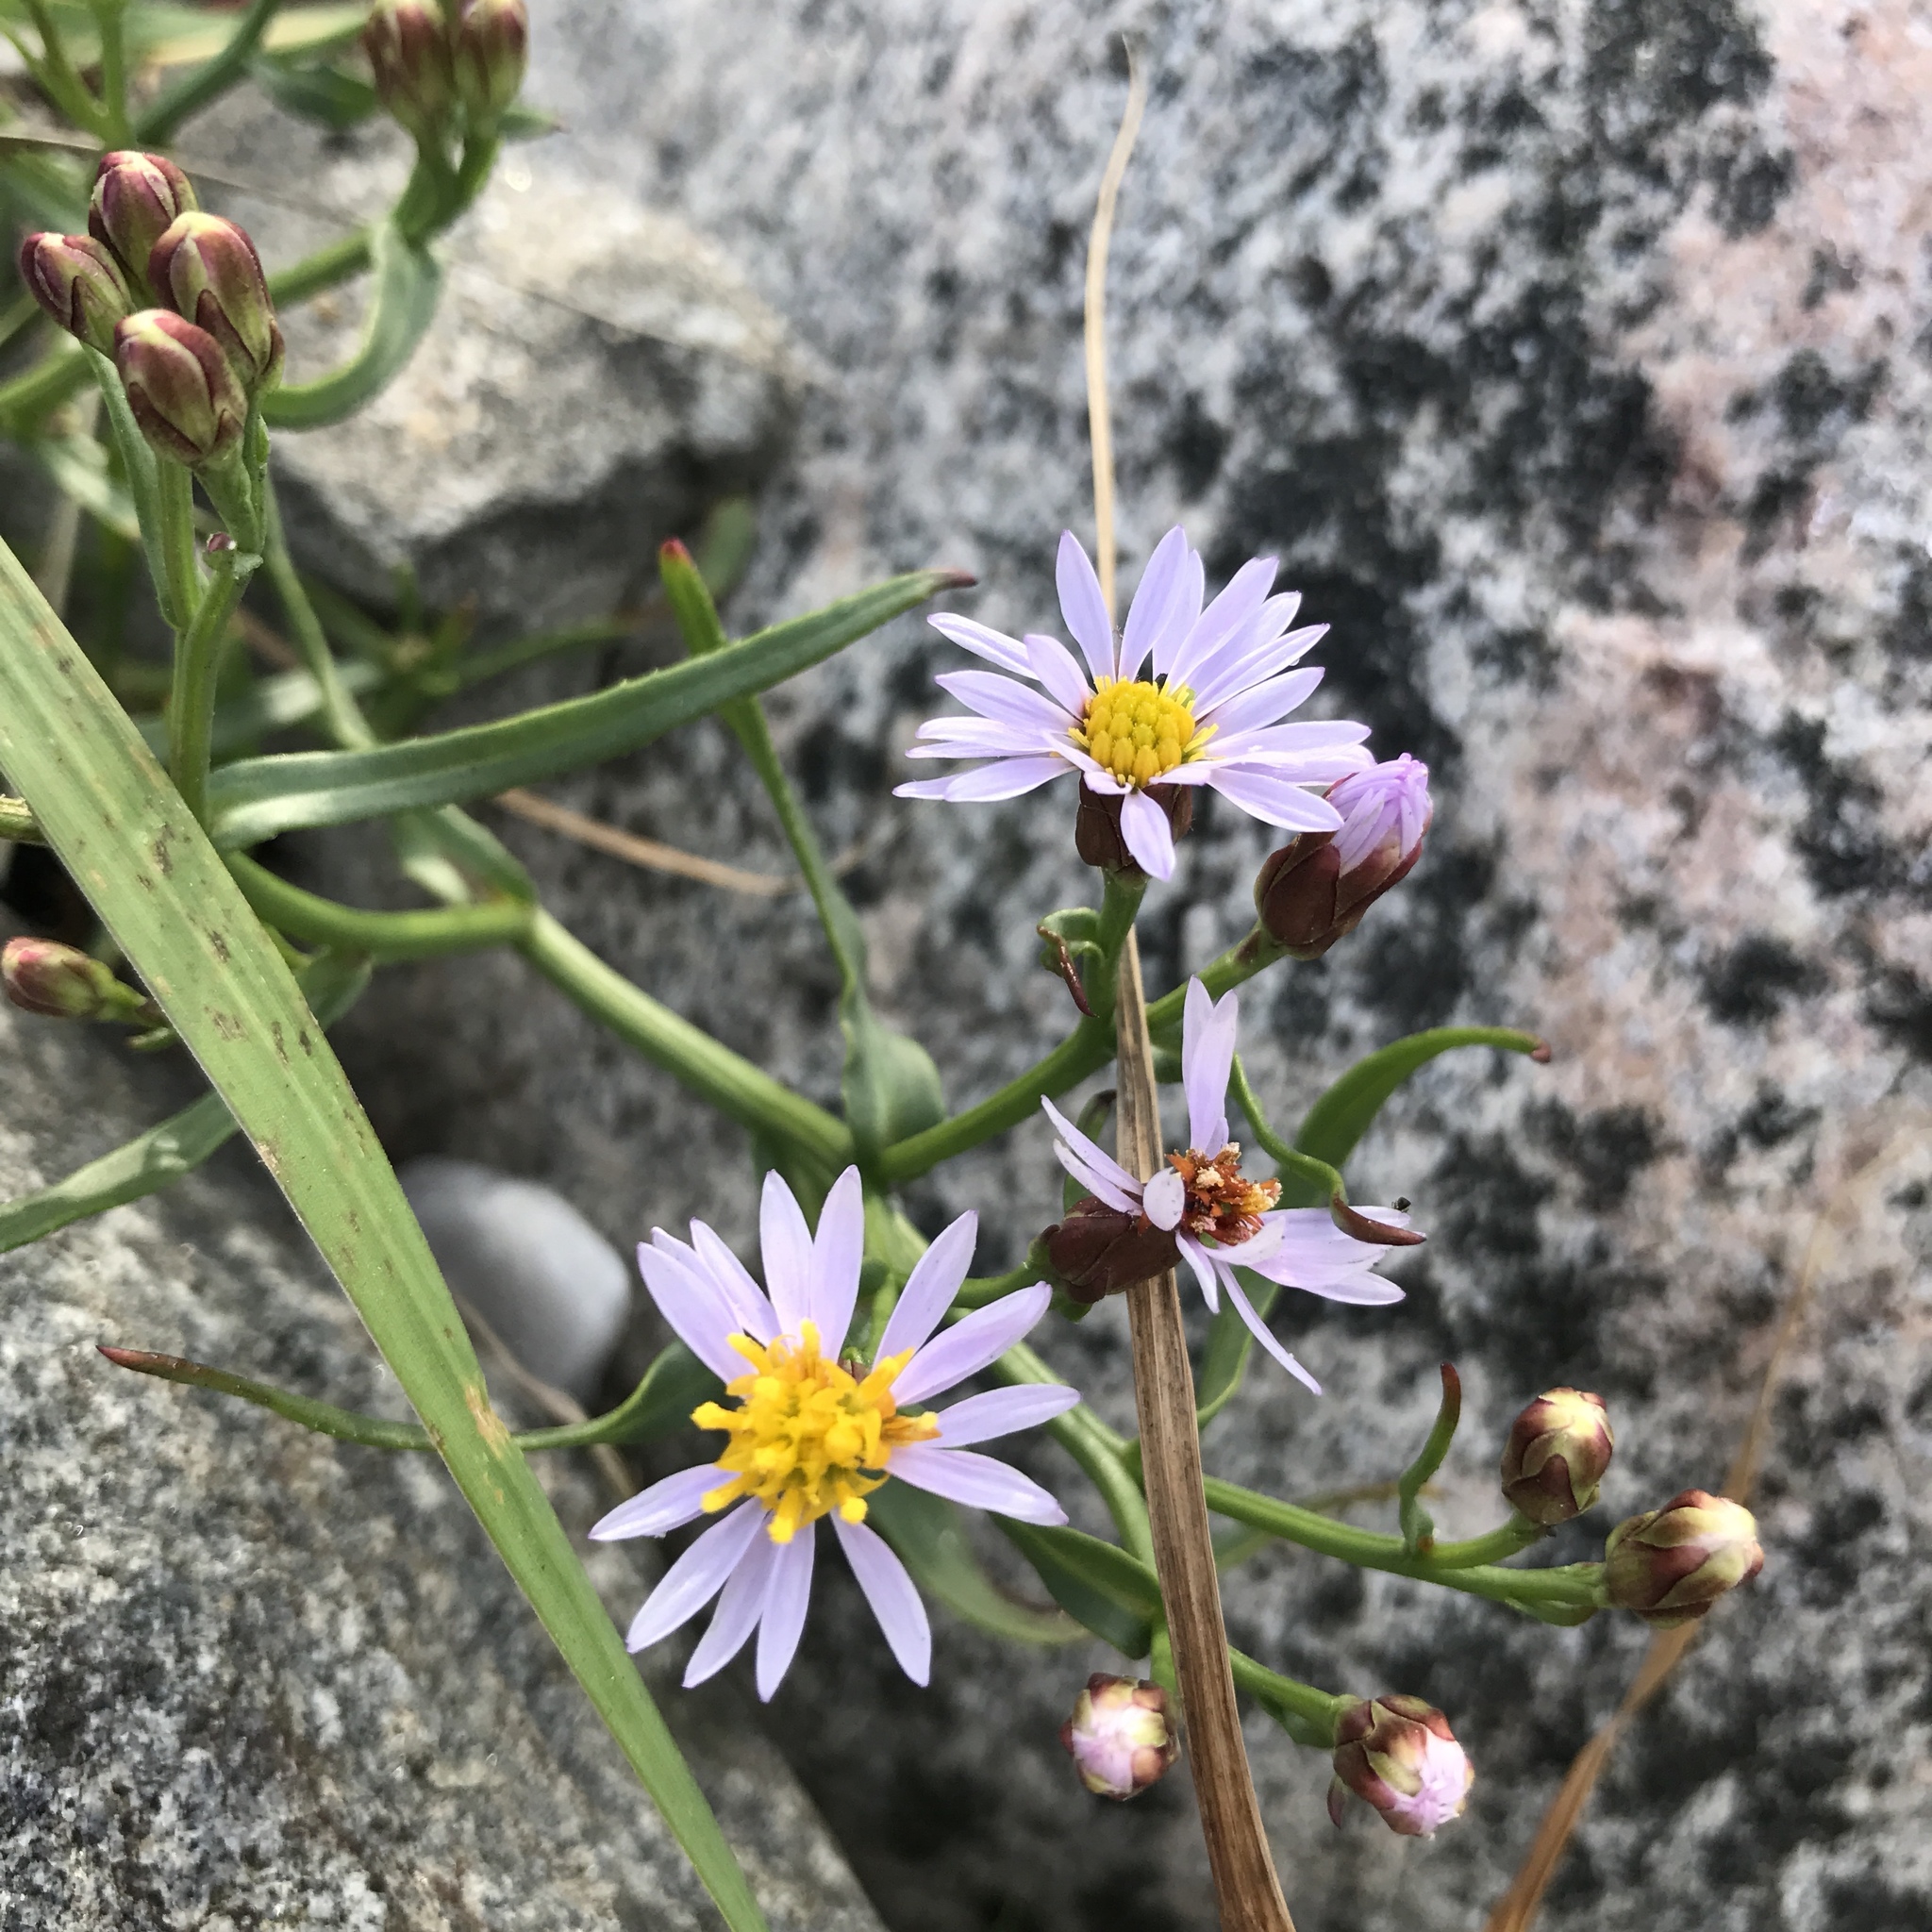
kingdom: Plantae
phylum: Tracheophyta
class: Magnoliopsida
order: Asterales
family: Asteraceae
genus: Tripolium
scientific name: Tripolium pannonicum
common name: Sea aster
